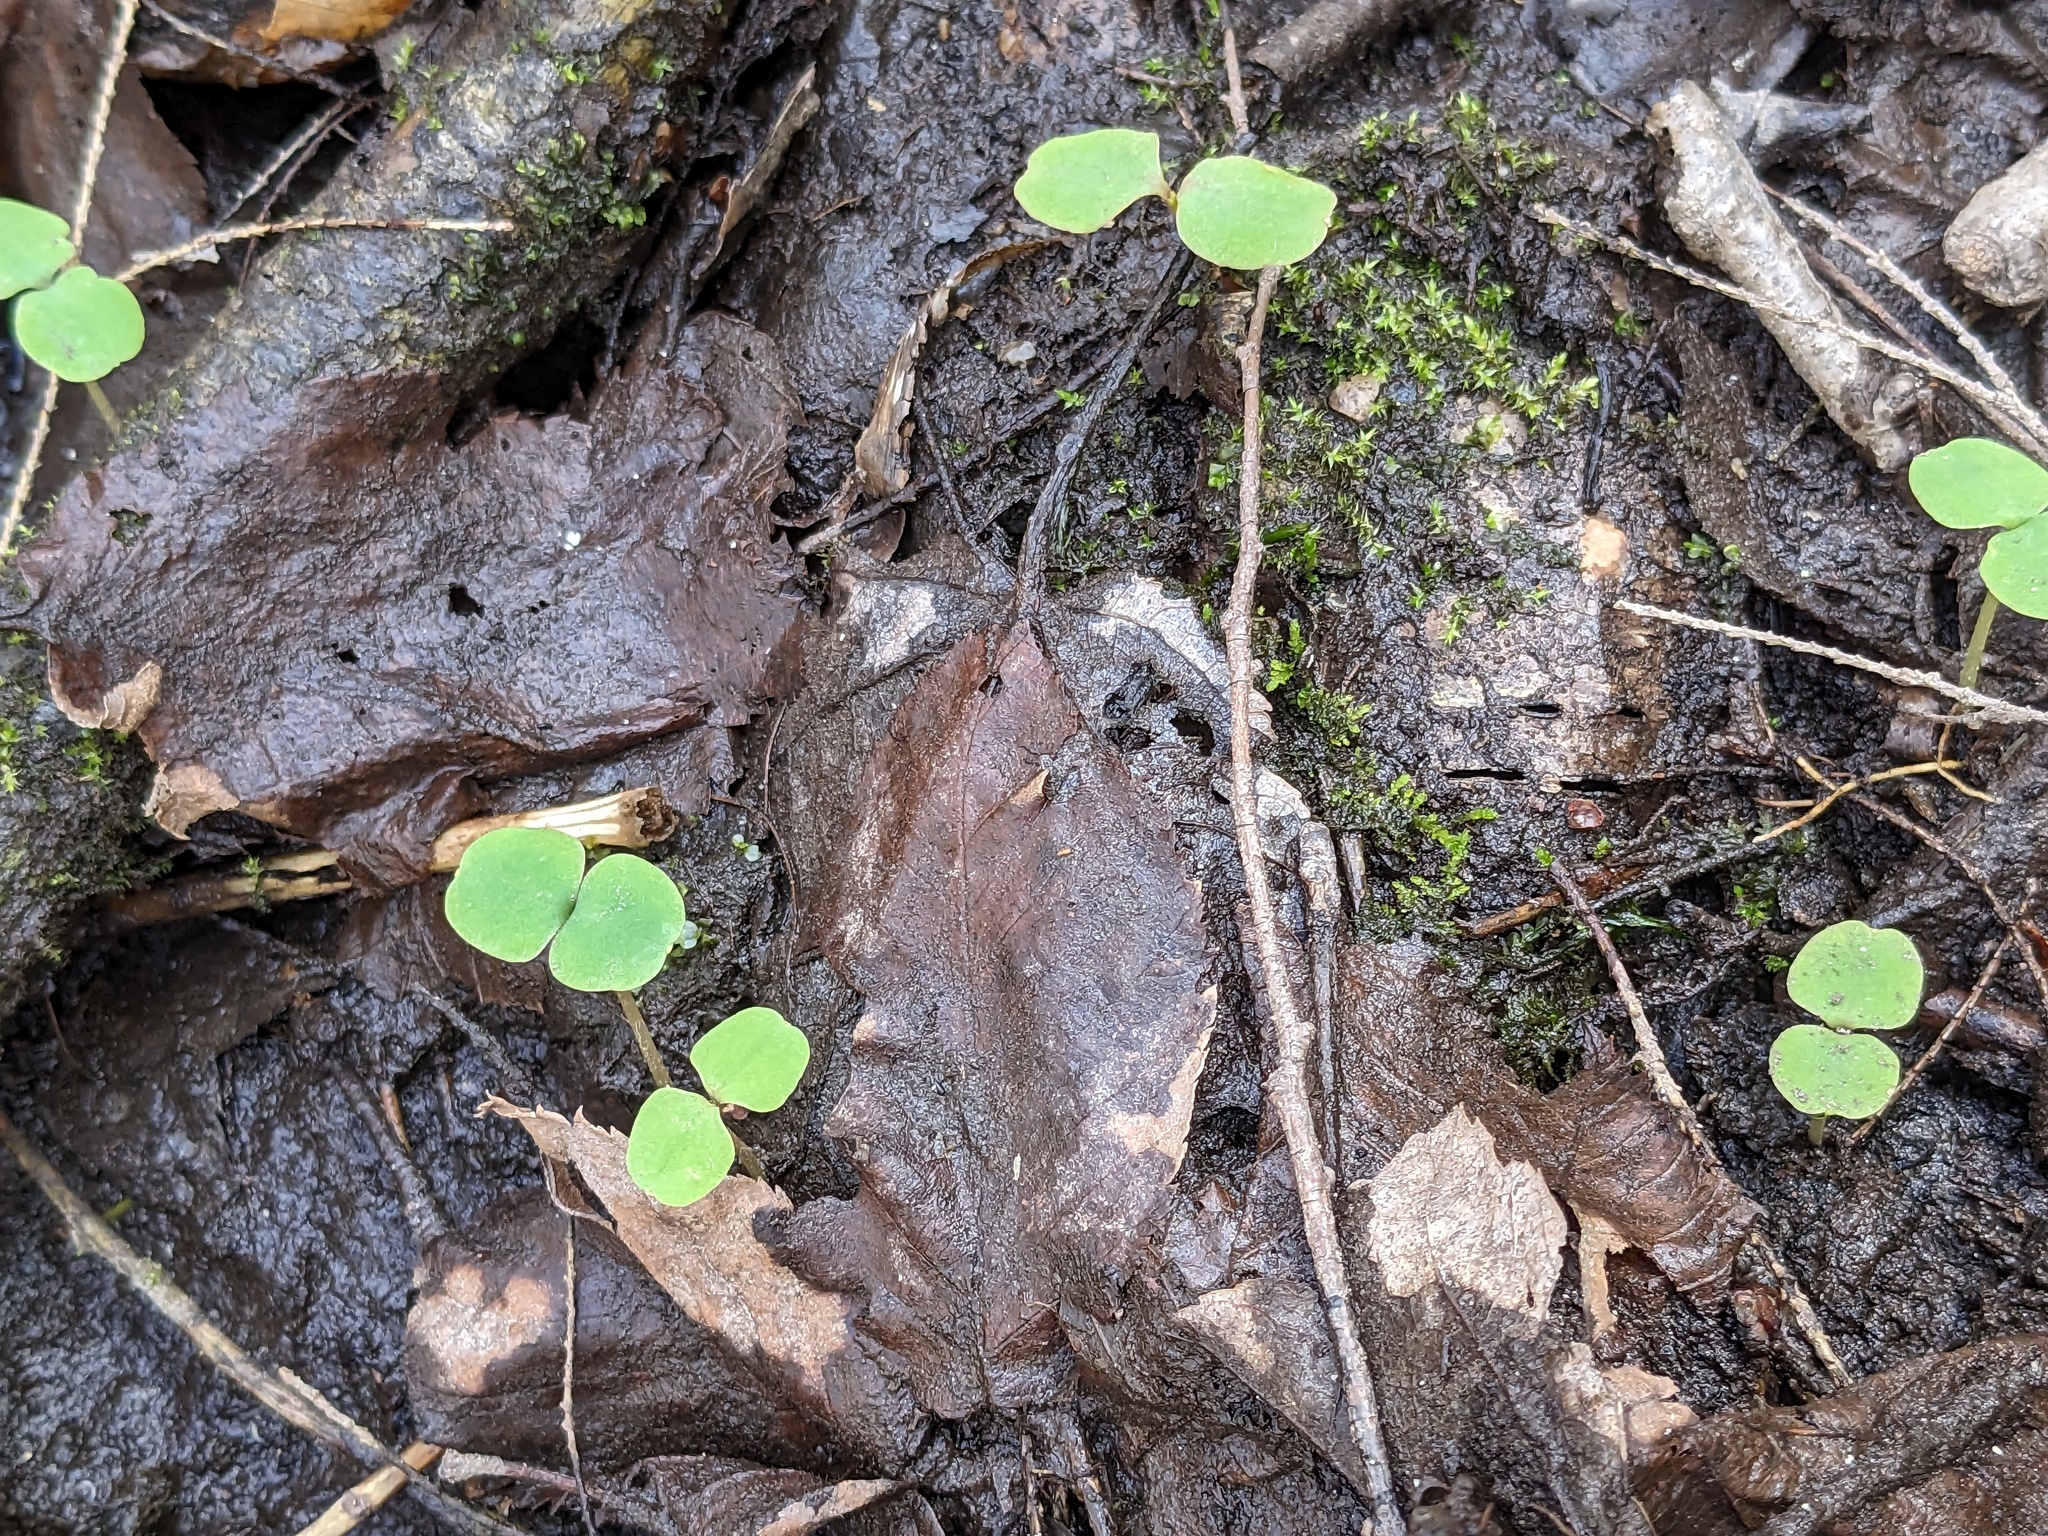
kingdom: Plantae
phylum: Tracheophyta
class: Magnoliopsida
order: Ericales
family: Balsaminaceae
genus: Impatiens
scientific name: Impatiens capensis
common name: Orange balsam
